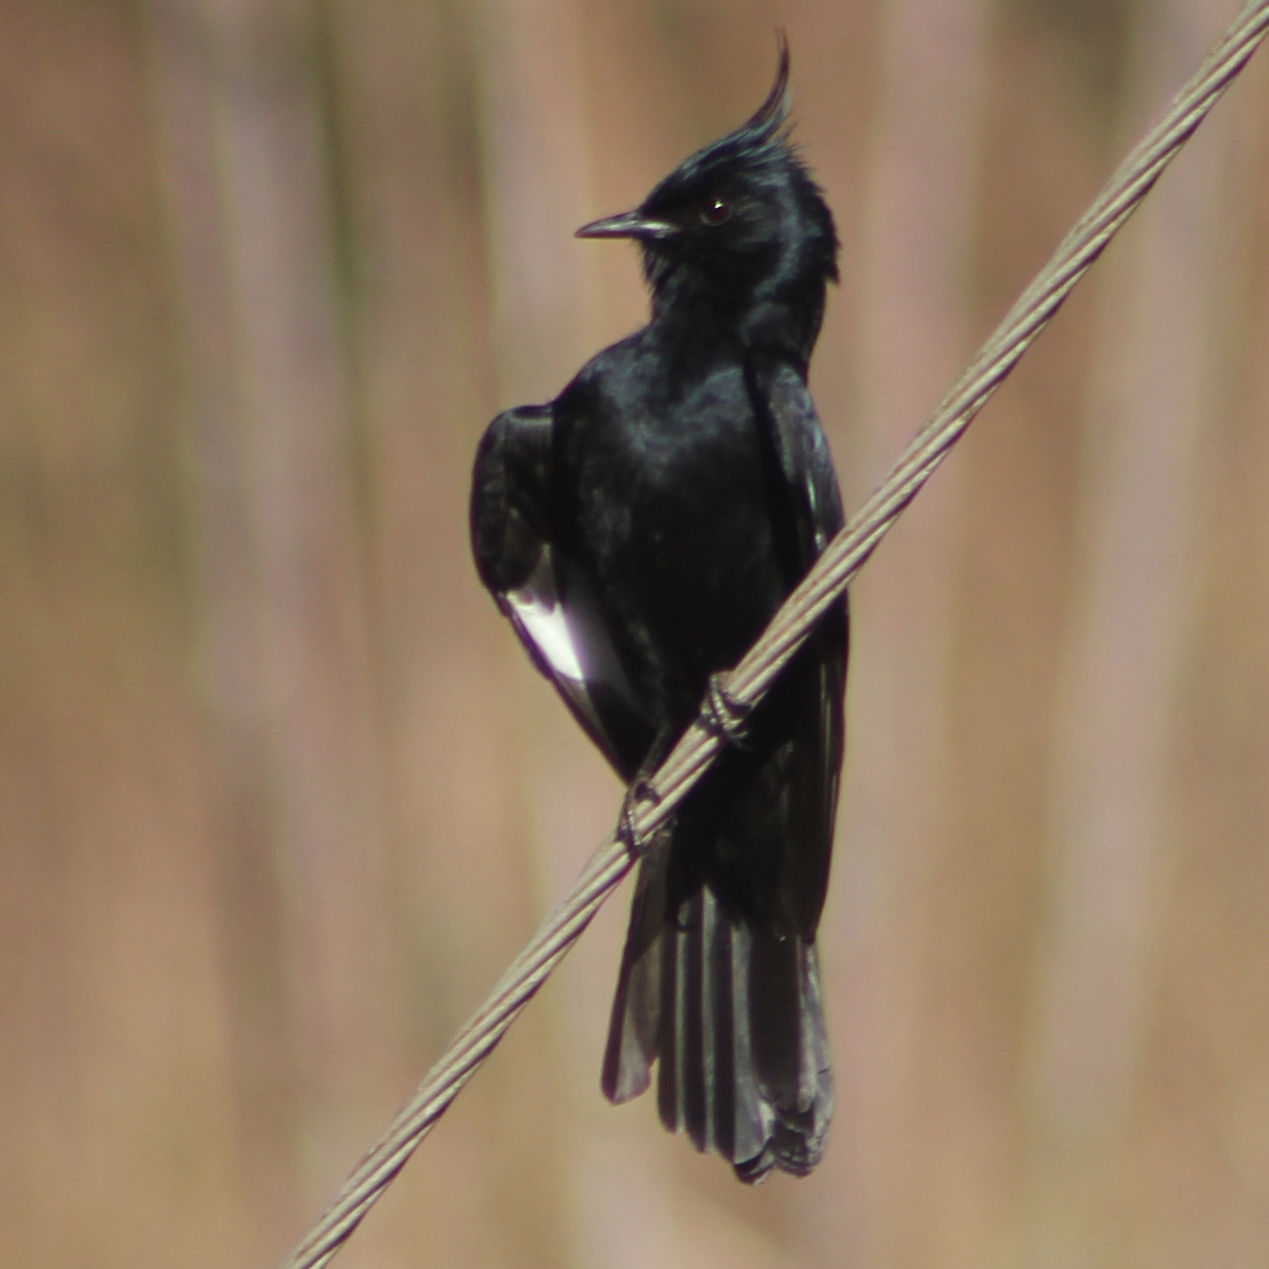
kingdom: Animalia
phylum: Chordata
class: Aves
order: Passeriformes
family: Tyrannidae
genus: Knipolegus
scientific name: Knipolegus lophotes
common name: Crested black tyrant
